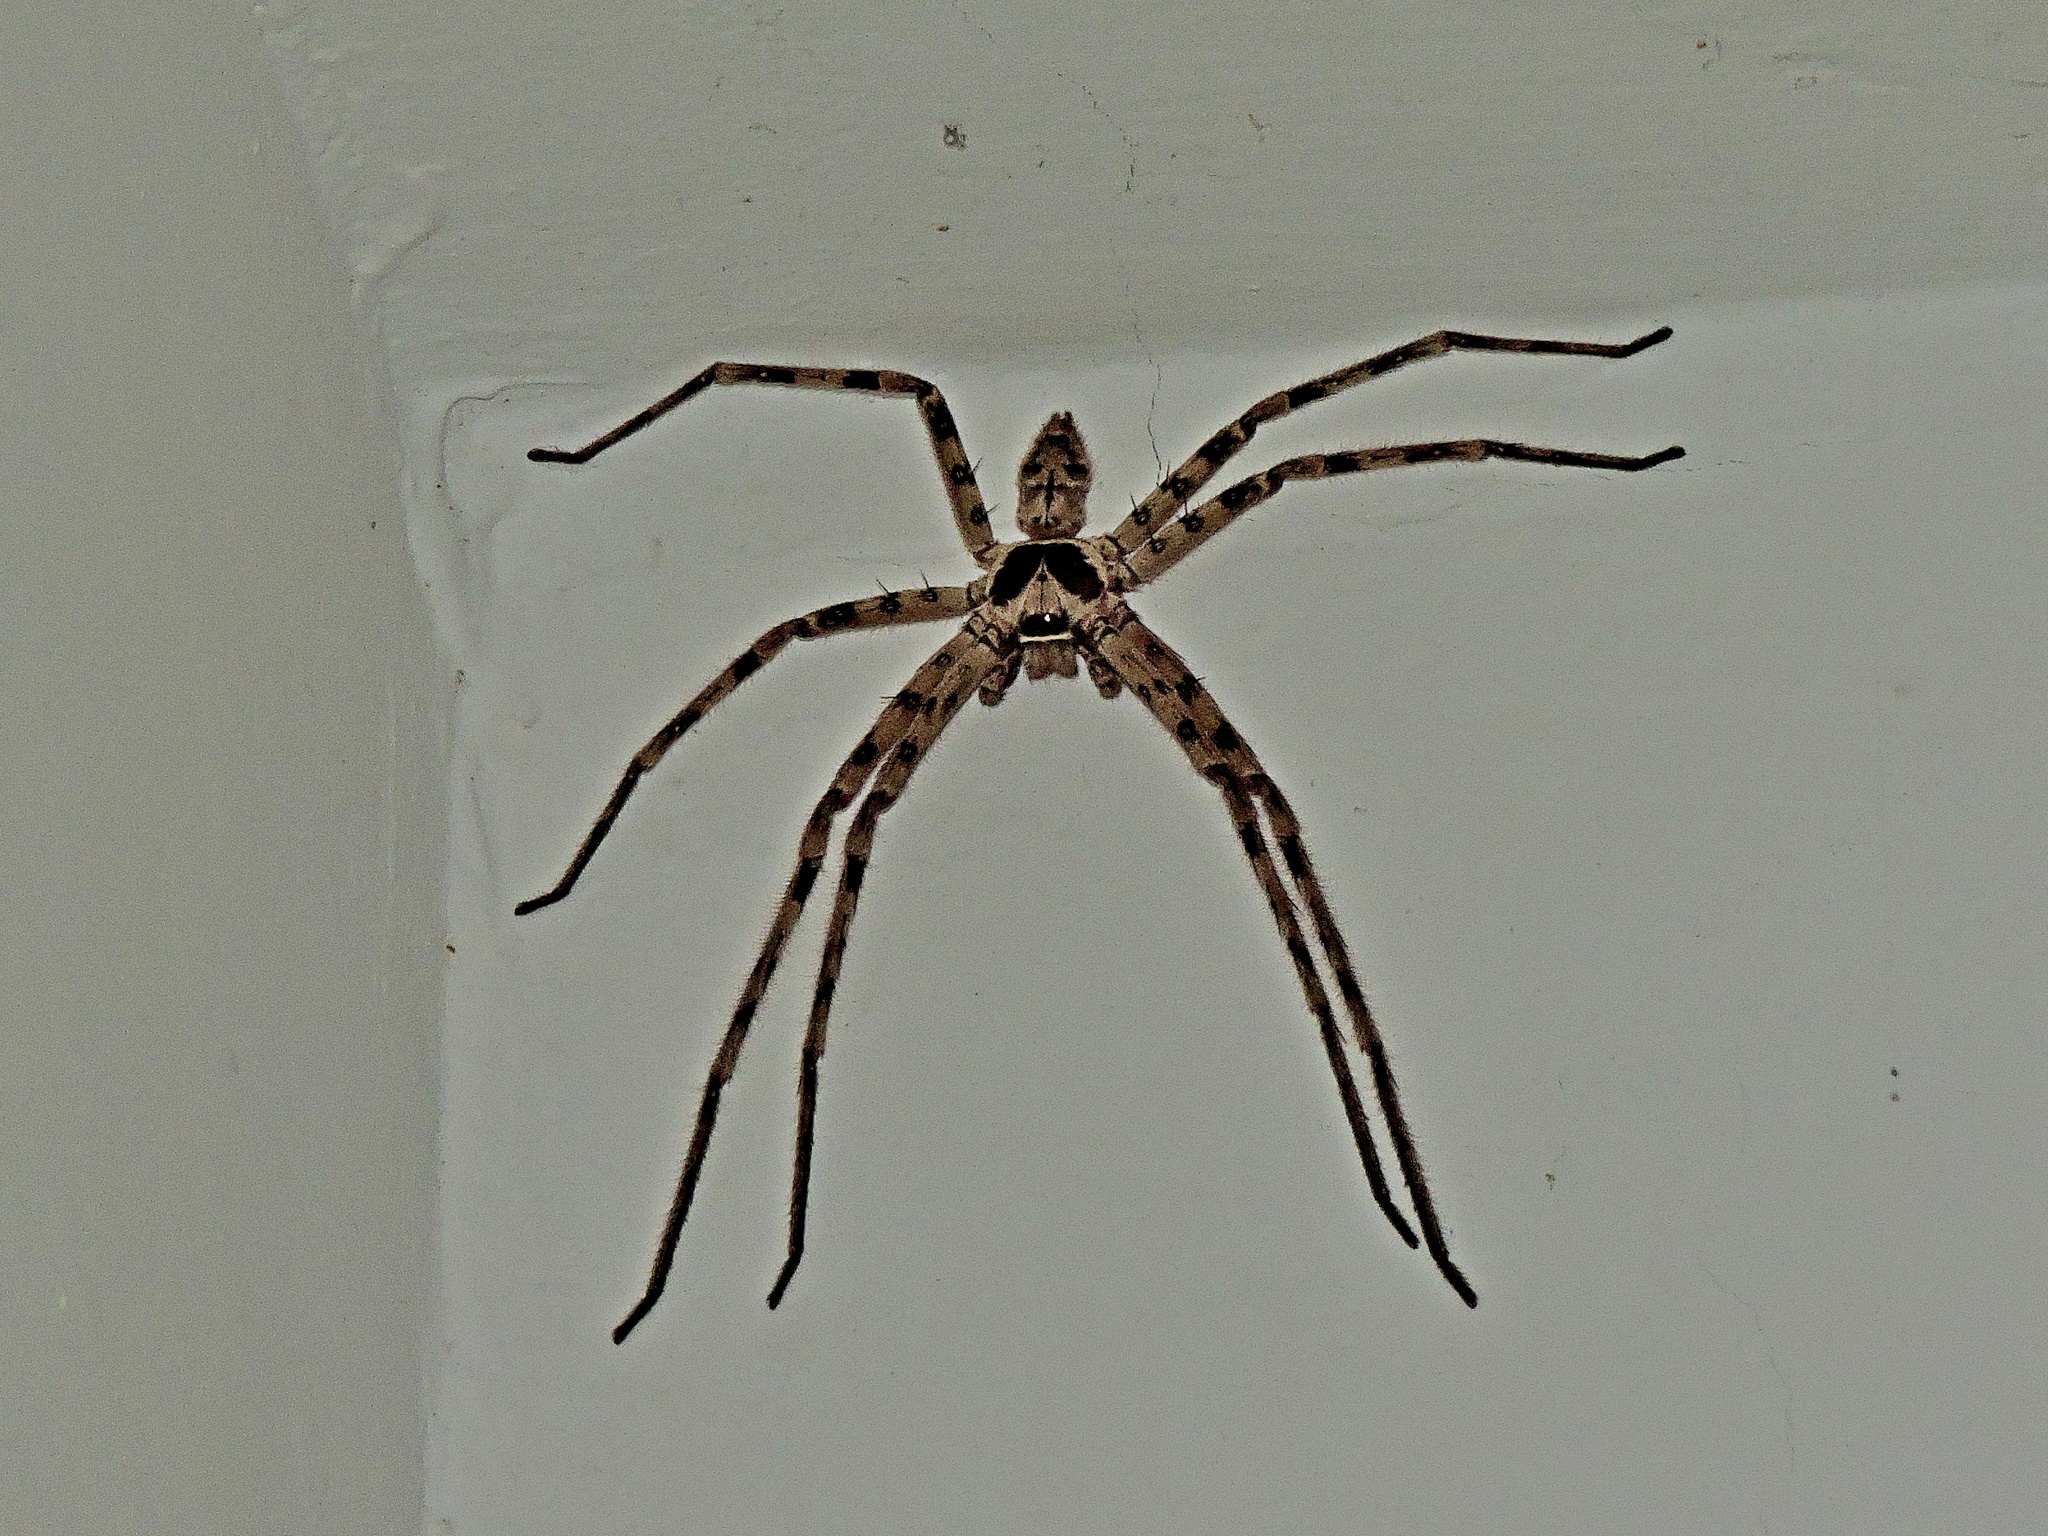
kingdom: Animalia
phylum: Arthropoda
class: Arachnida
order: Araneae
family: Sparassidae
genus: Heteropoda
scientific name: Heteropoda venatoria
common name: Huntsman spider
